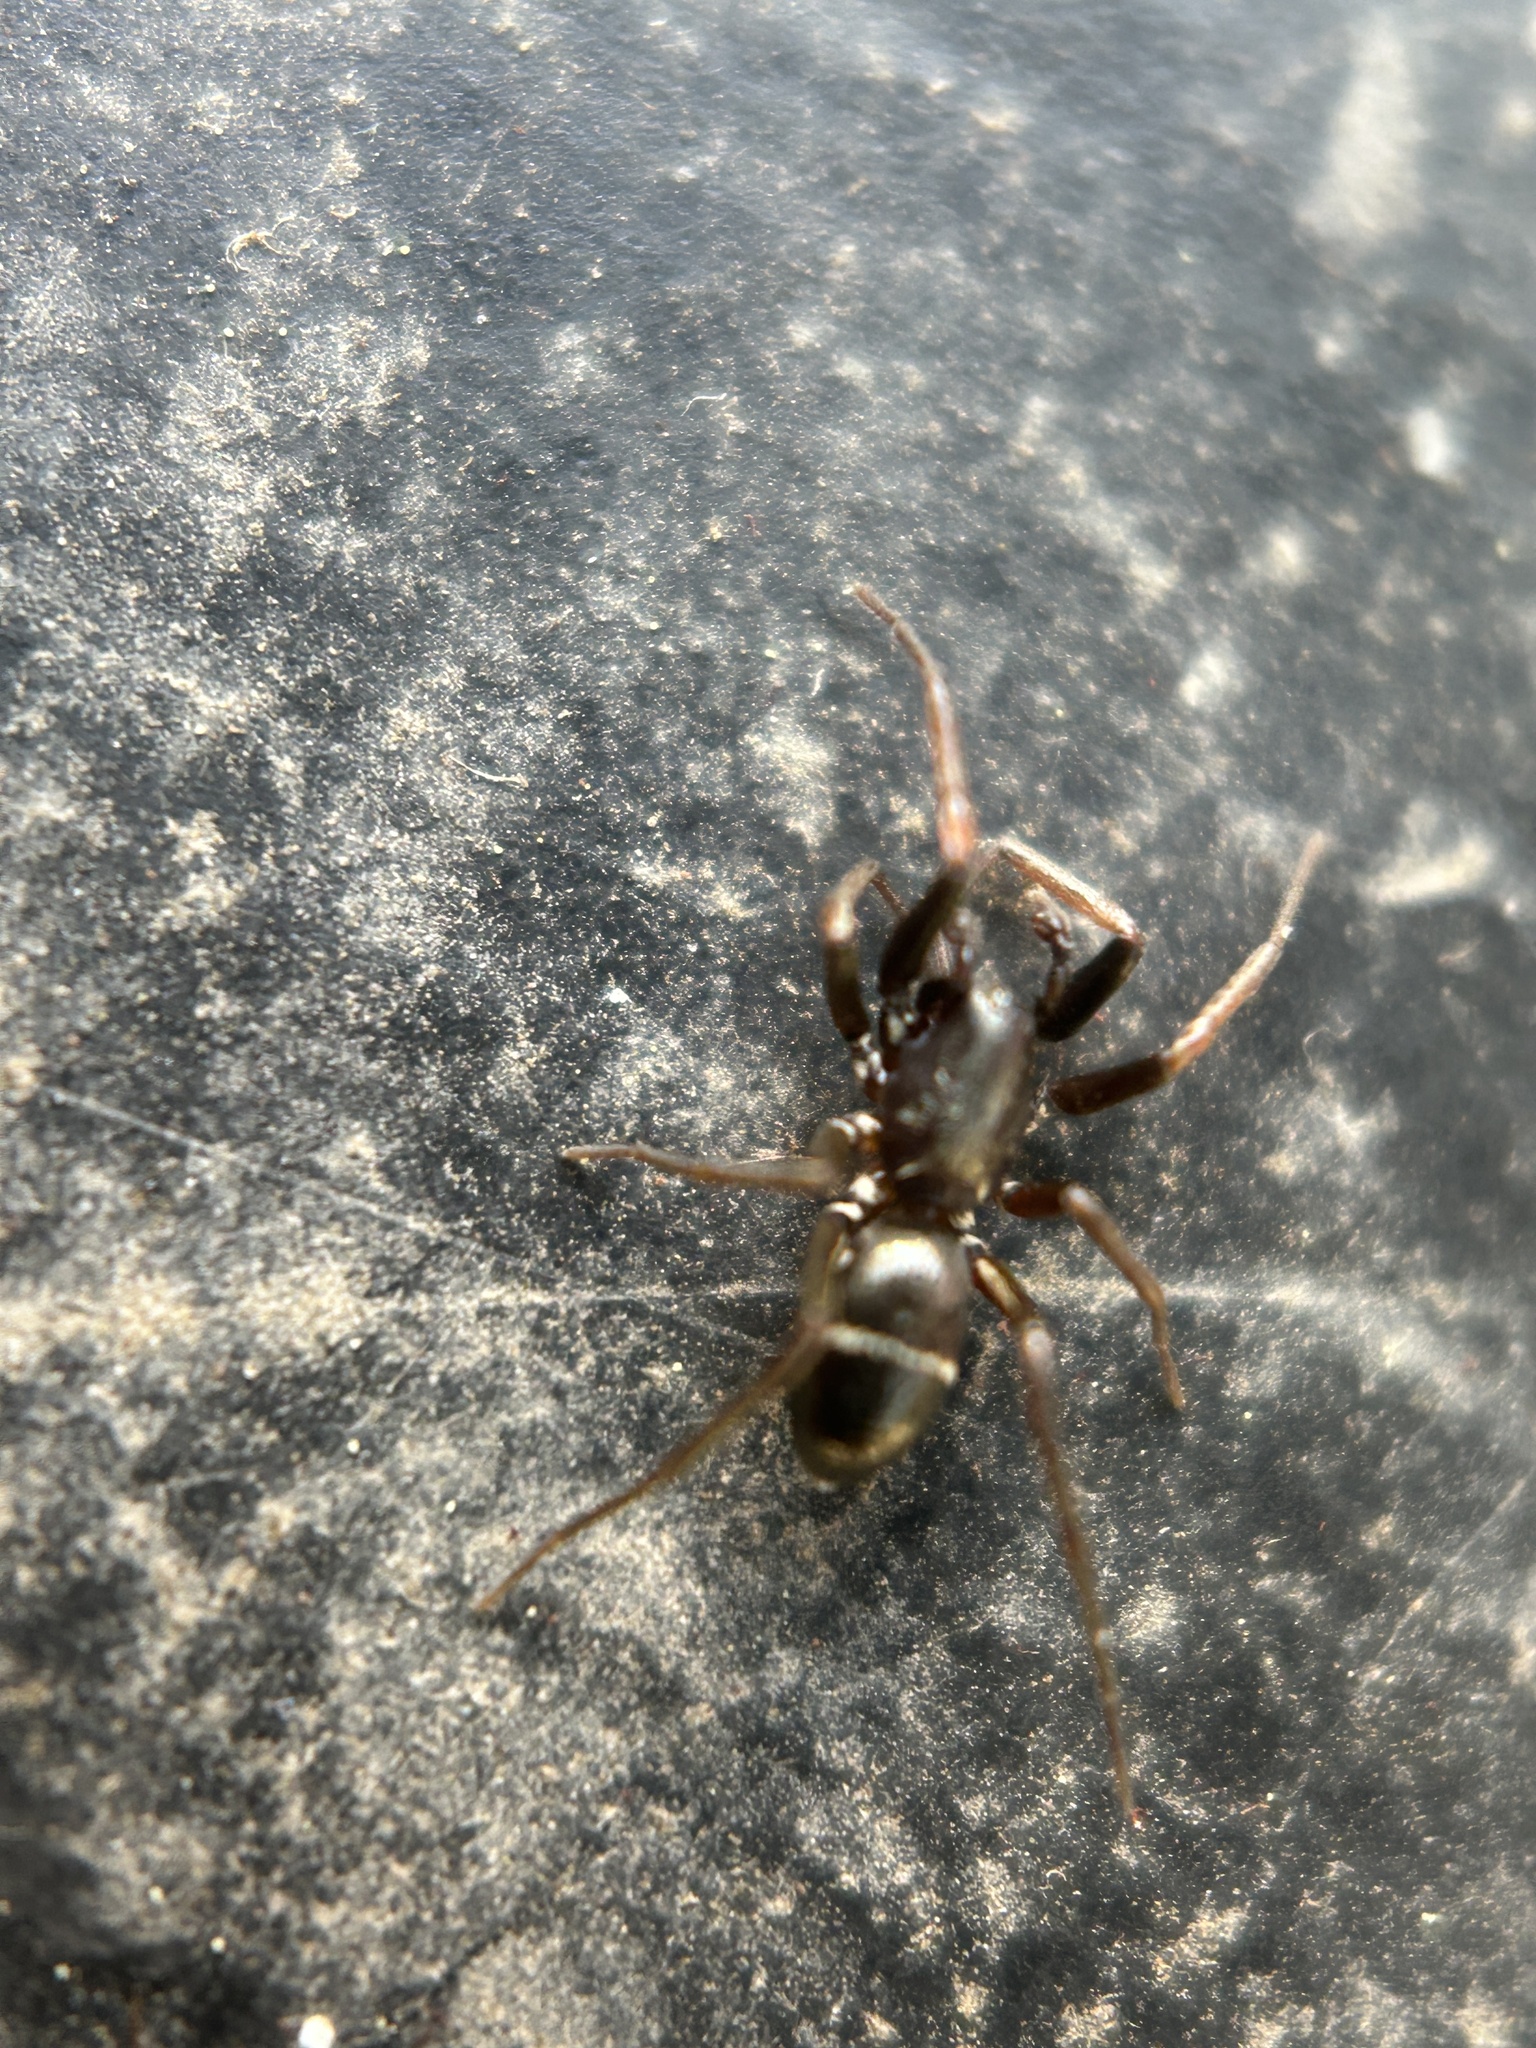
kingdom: Animalia
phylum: Arthropoda
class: Arachnida
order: Araneae
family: Gnaphosidae
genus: Micaria
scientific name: Micaria pulicaria
